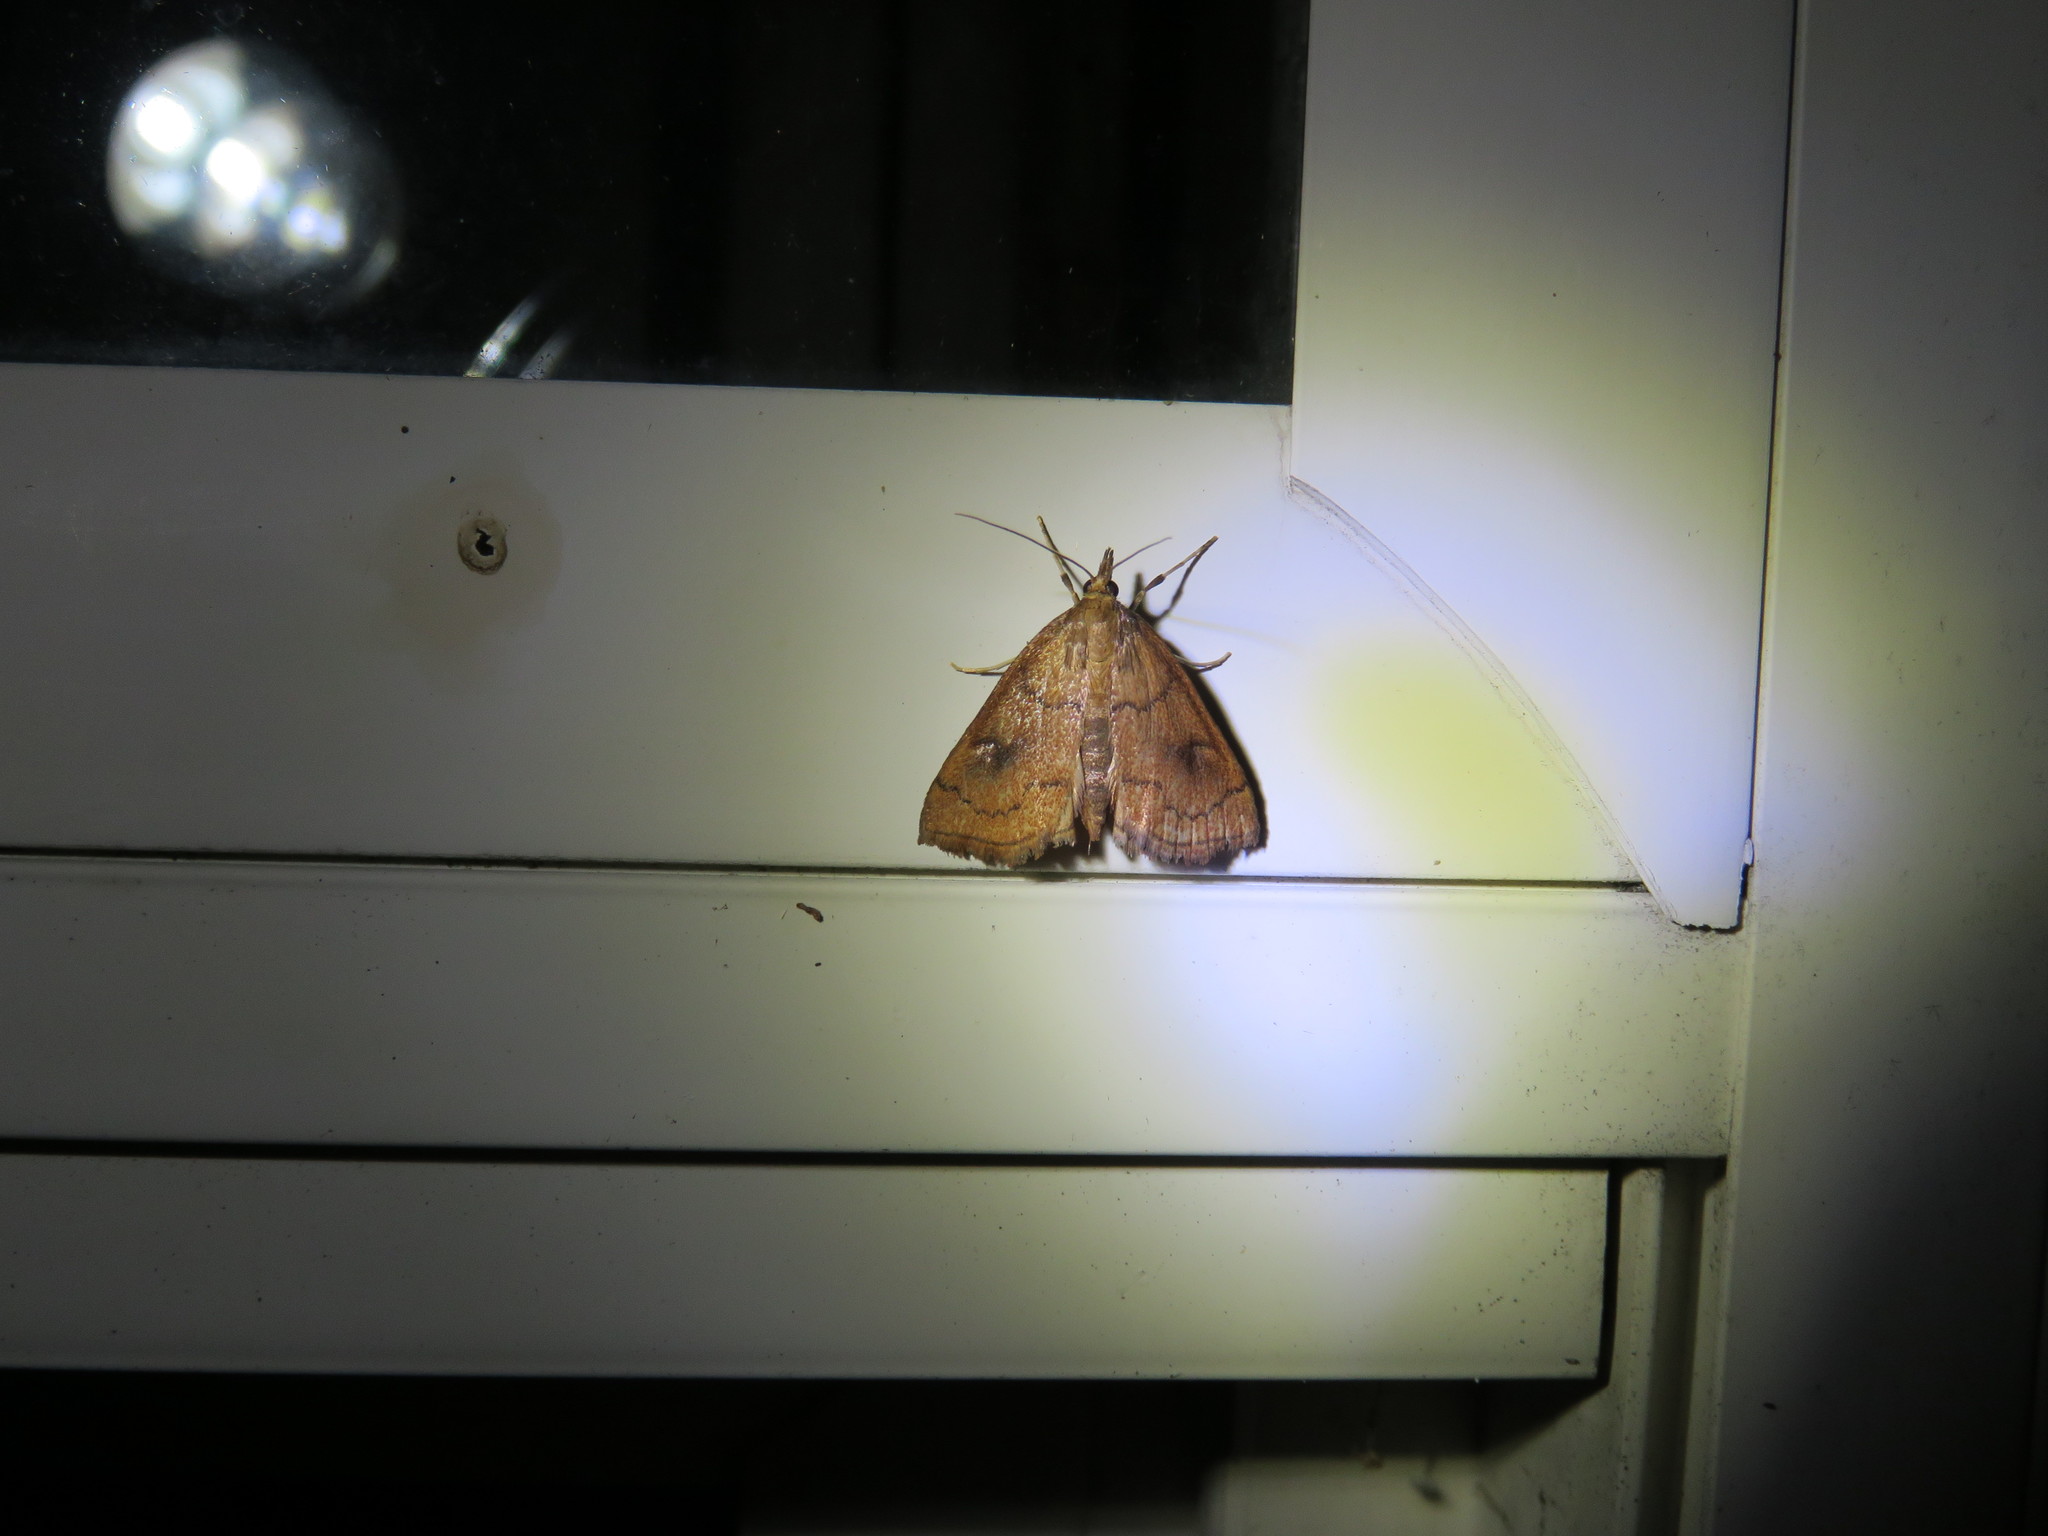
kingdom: Animalia
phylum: Arthropoda
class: Insecta
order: Lepidoptera
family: Crambidae
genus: Fumibotys
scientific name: Fumibotys fumalis
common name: Mint root borer moth
